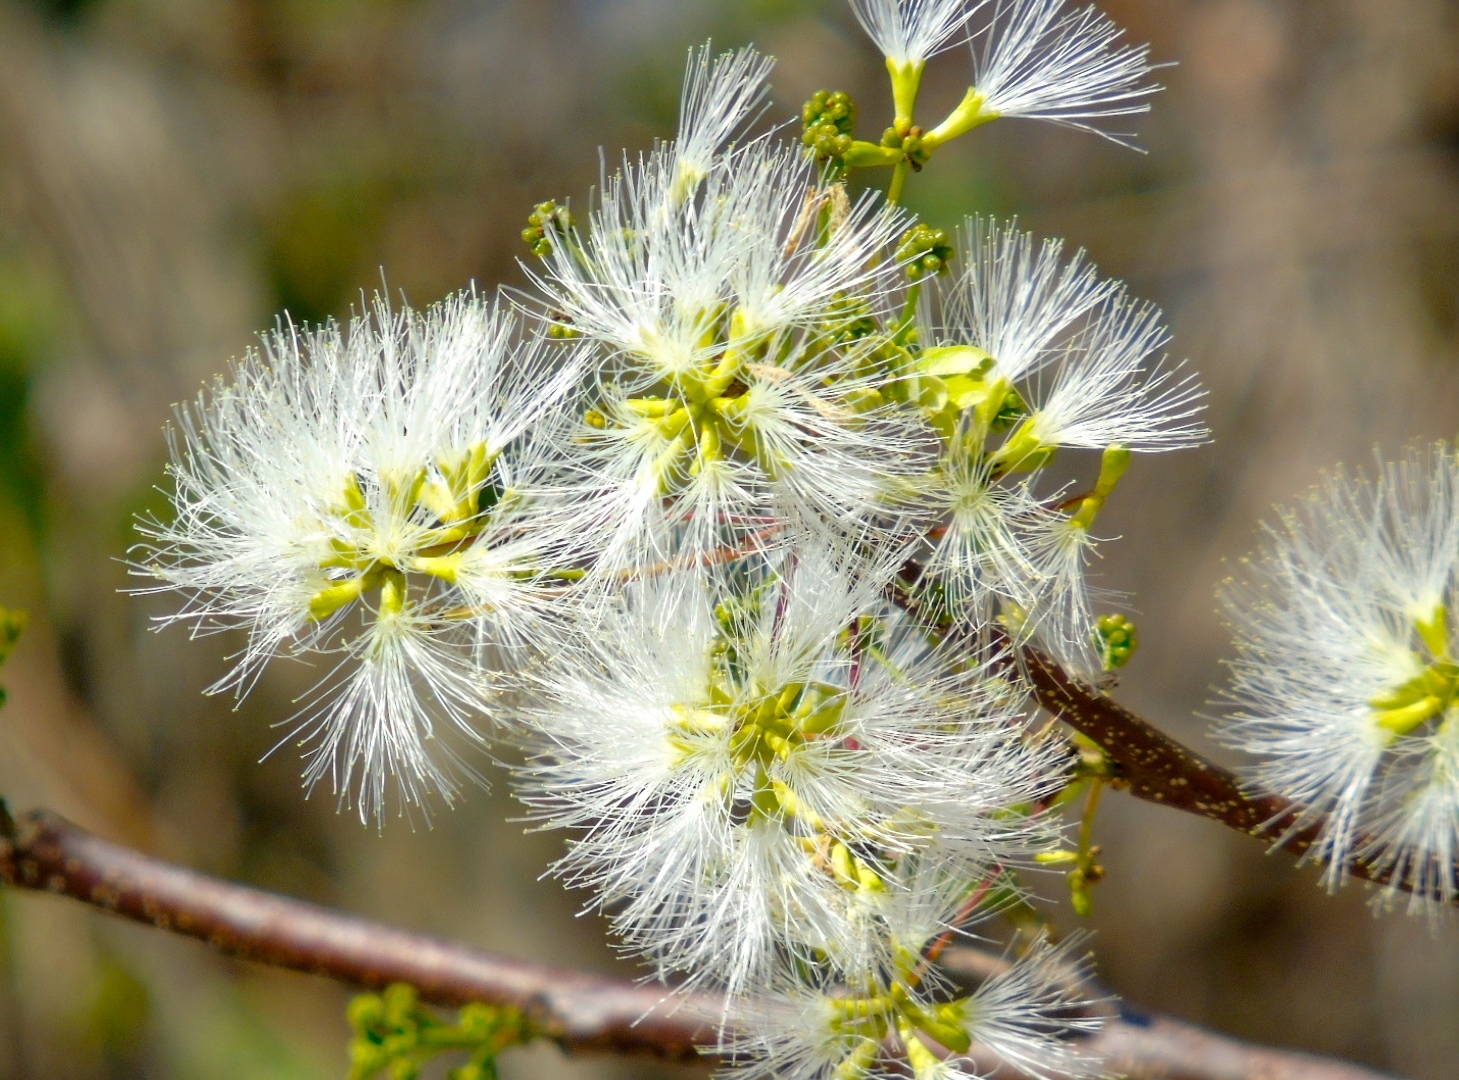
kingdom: Plantae
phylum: Tracheophyta
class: Magnoliopsida
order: Fabales
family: Fabaceae
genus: Albizia
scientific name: Albizia occidentalis
